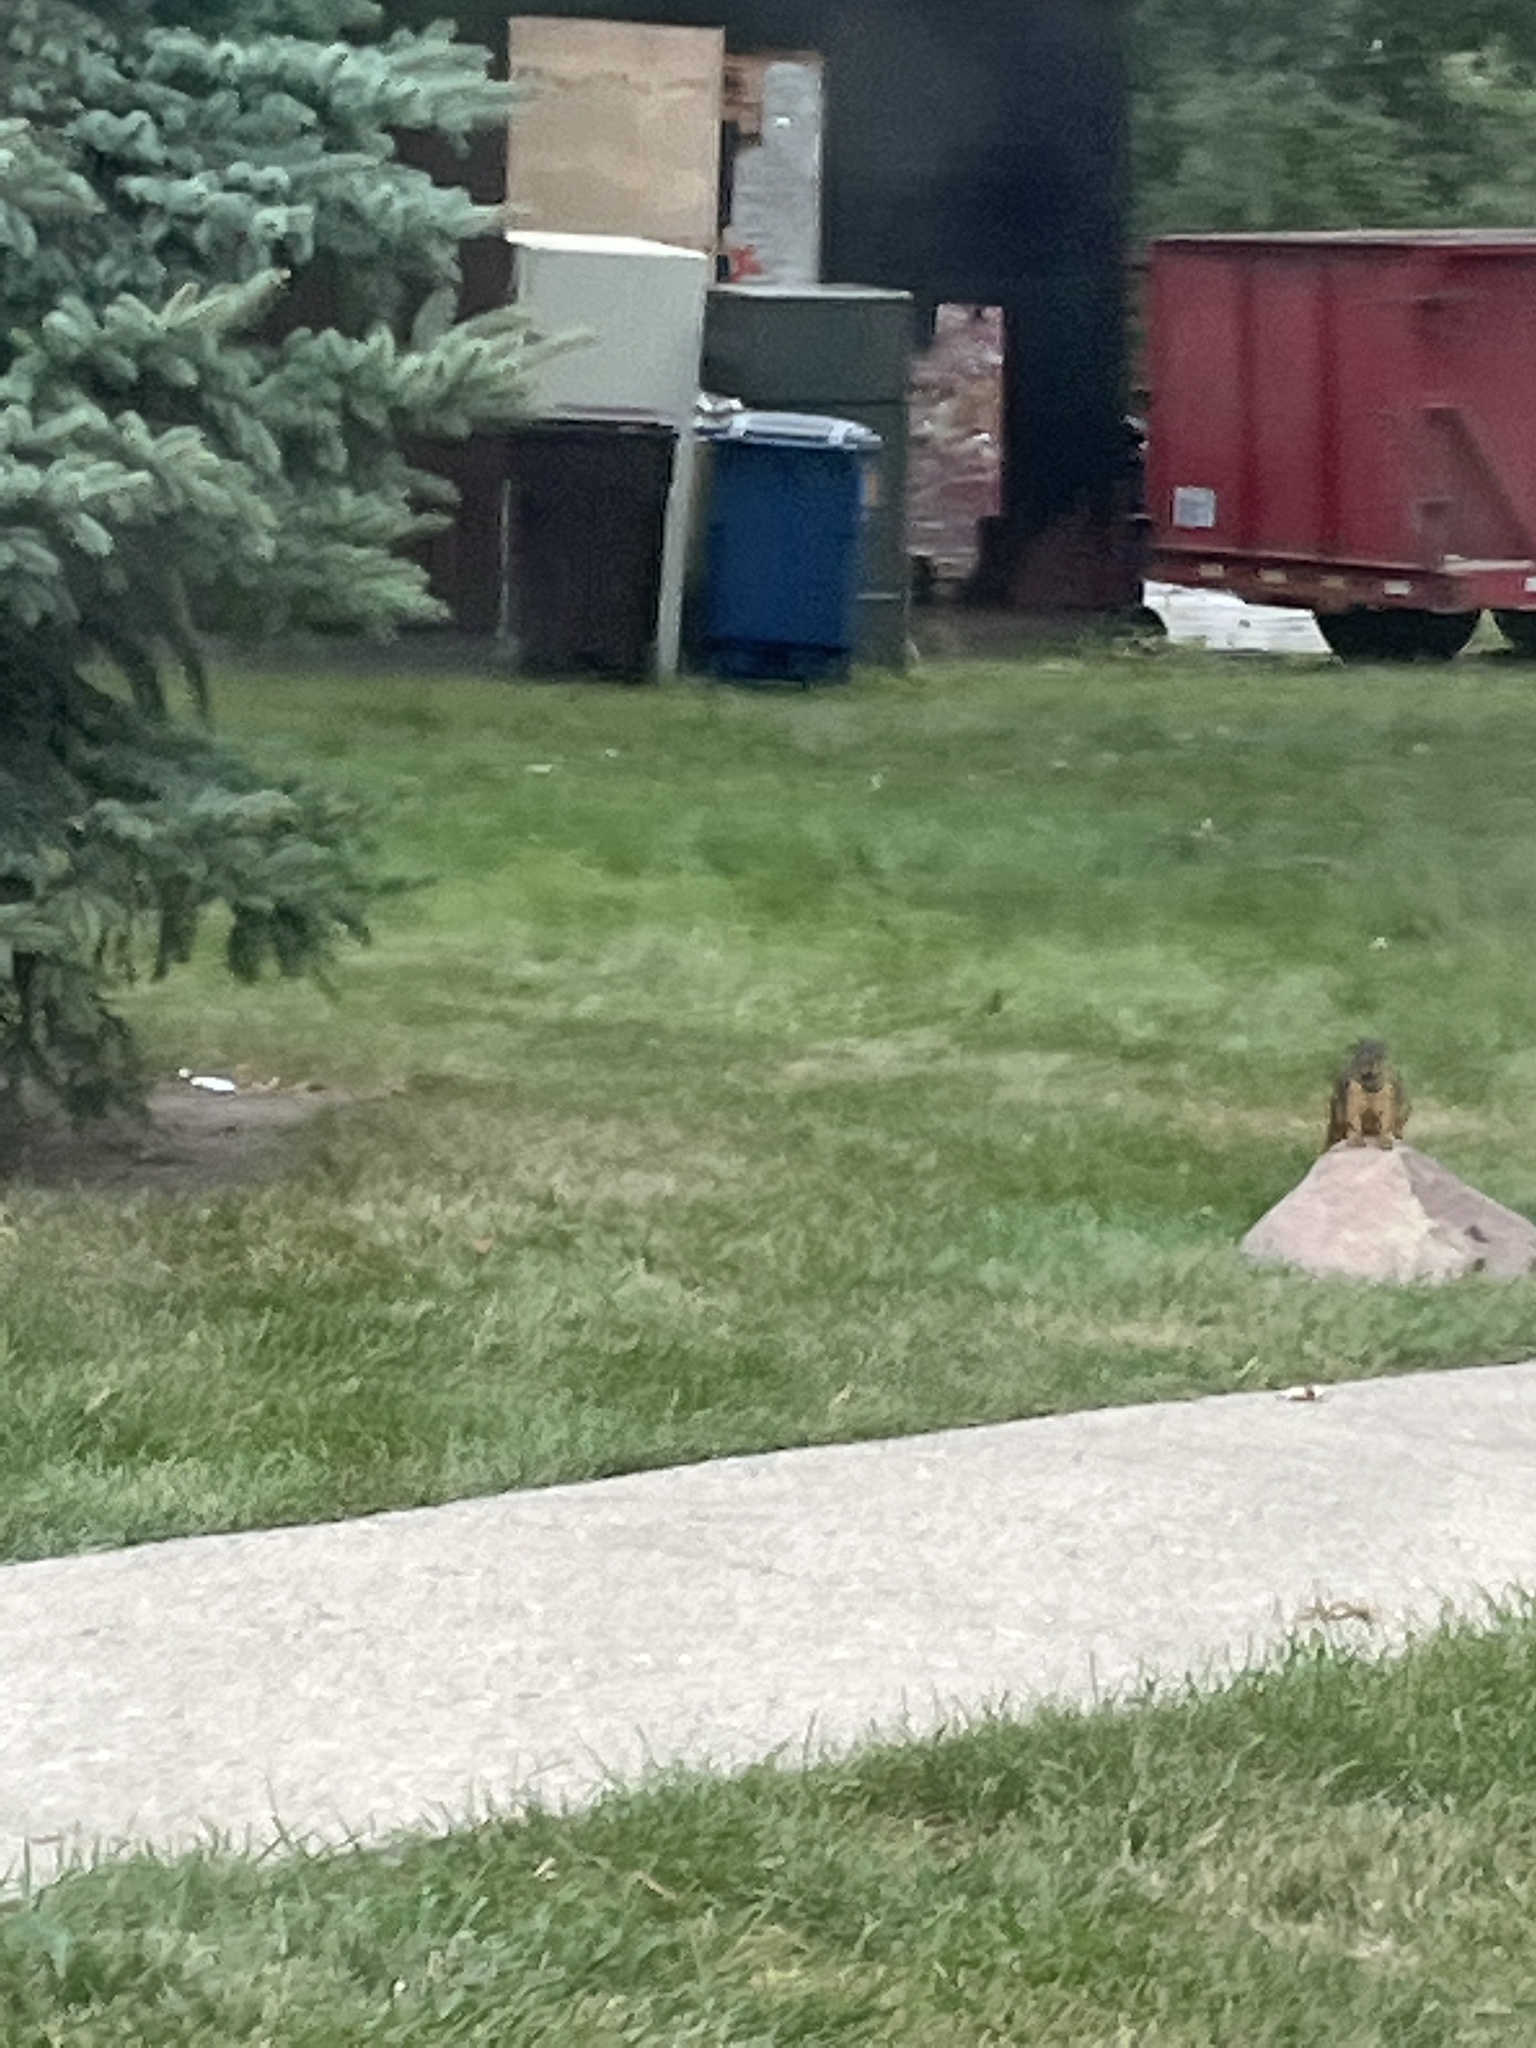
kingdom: Animalia
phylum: Chordata
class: Mammalia
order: Rodentia
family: Sciuridae
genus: Sciurus
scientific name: Sciurus niger
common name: Fox squirrel
